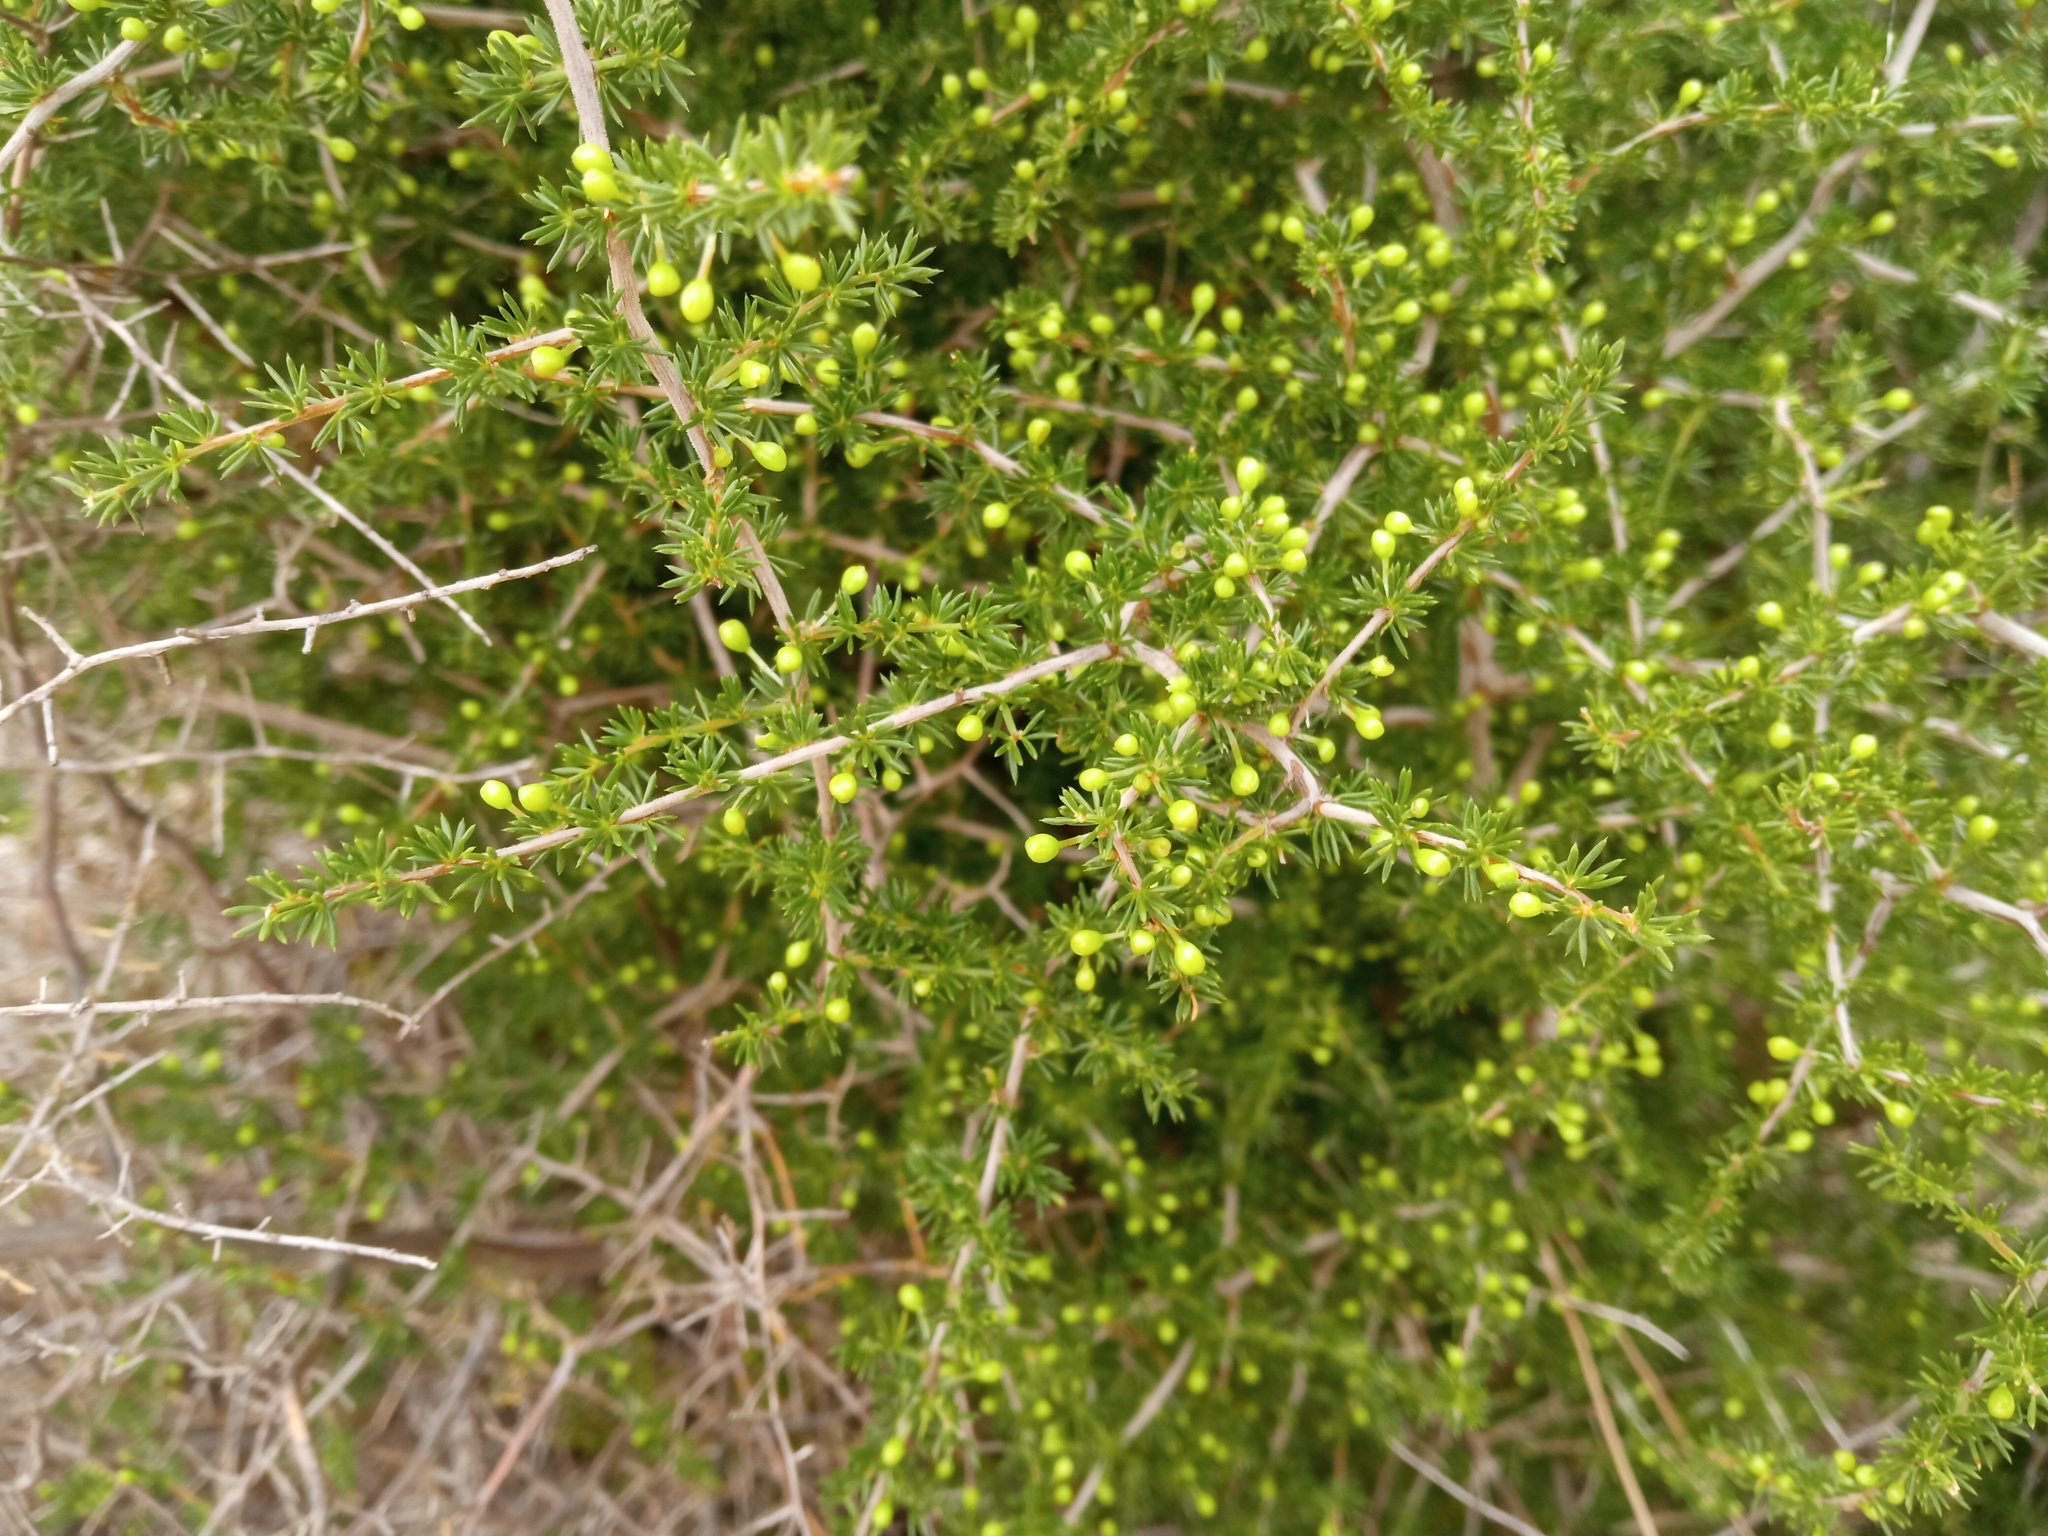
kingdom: Plantae
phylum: Tracheophyta
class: Liliopsida
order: Asparagales
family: Asparagaceae
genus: Asparagus
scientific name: Asparagus acutifolius
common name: Wild asparagus
